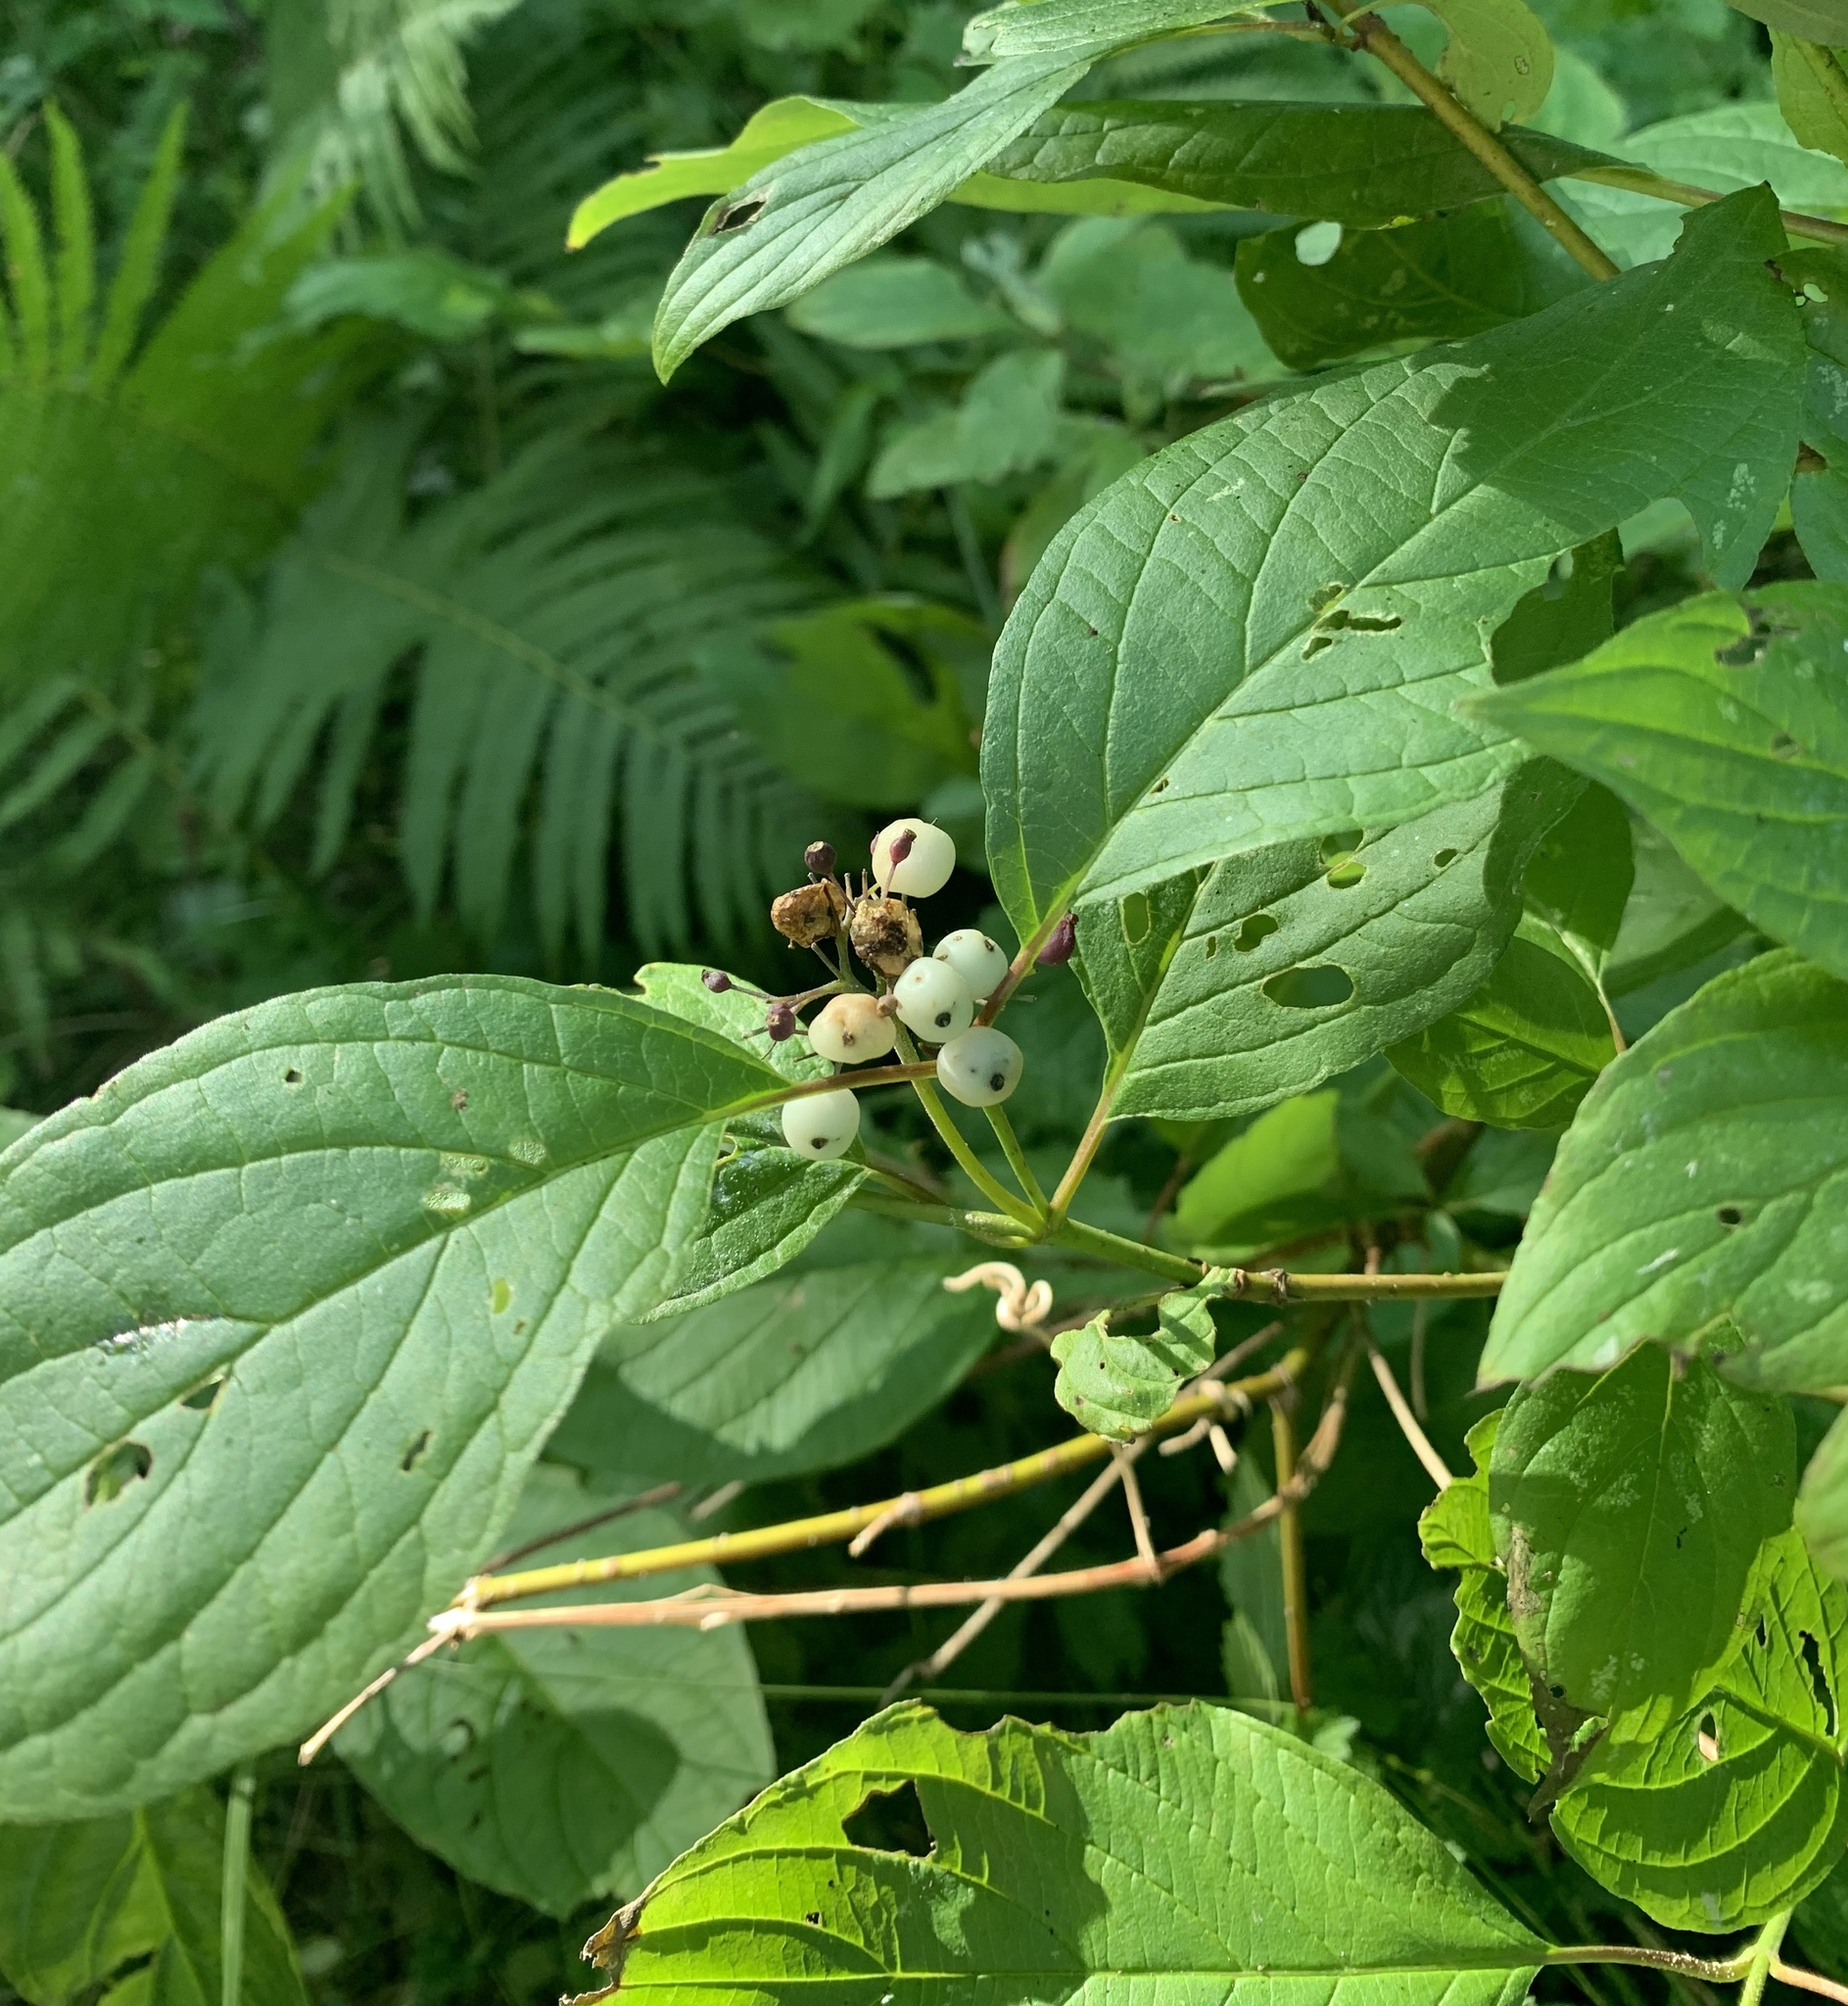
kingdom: Plantae
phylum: Tracheophyta
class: Magnoliopsida
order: Cornales
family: Cornaceae
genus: Cornus
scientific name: Cornus sericea
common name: Red-osier dogwood
